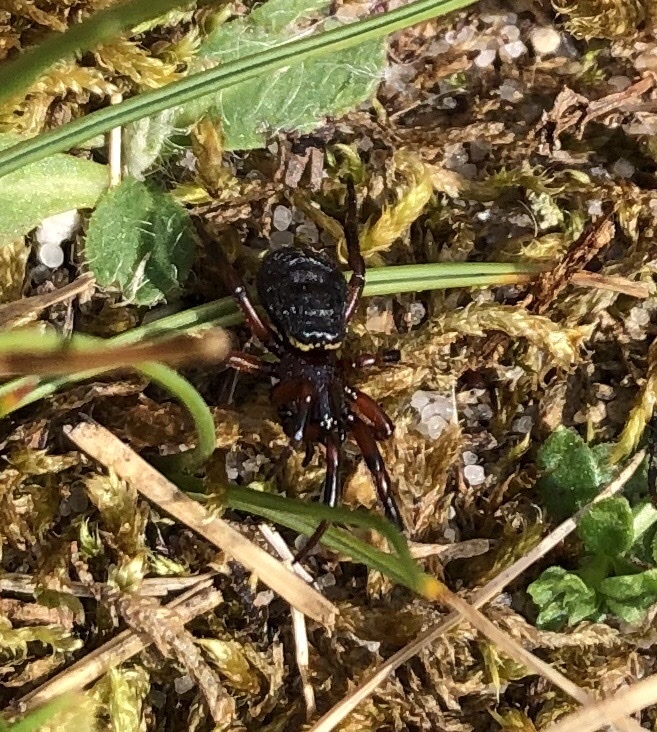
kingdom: Animalia
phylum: Arthropoda
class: Arachnida
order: Araneae
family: Theridiidae
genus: Asagena
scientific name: Asagena phalerata
